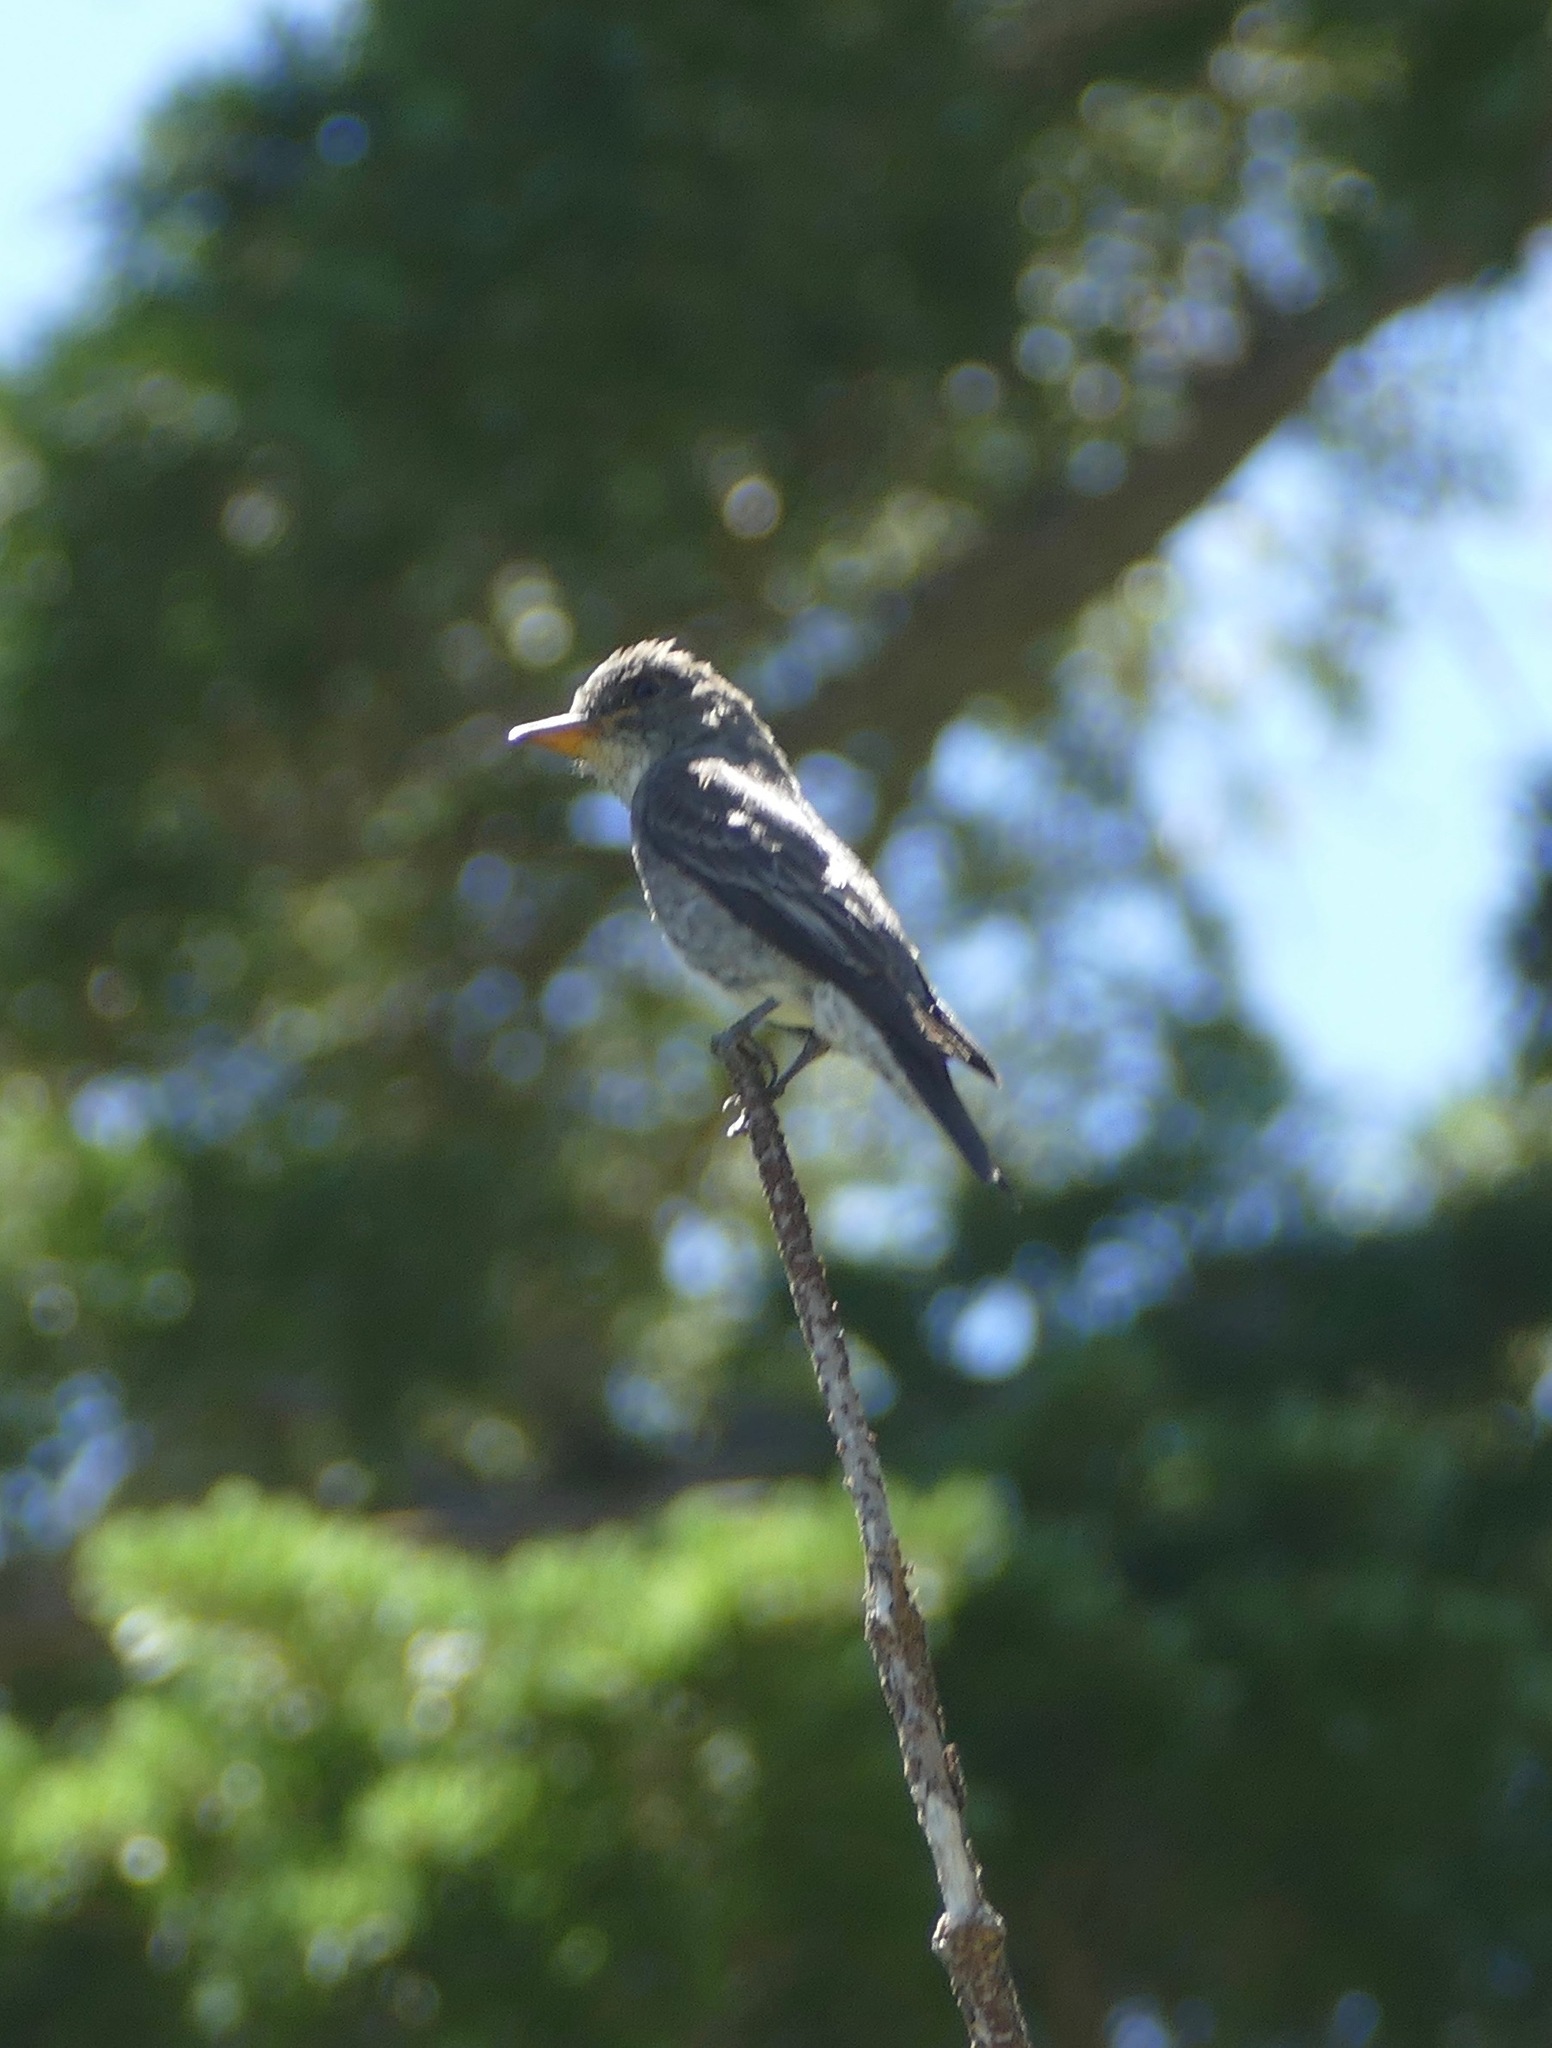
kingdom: Animalia
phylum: Chordata
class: Aves
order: Passeriformes
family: Tyrannidae
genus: Contopus
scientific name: Contopus cooperi
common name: Olive-sided flycatcher
